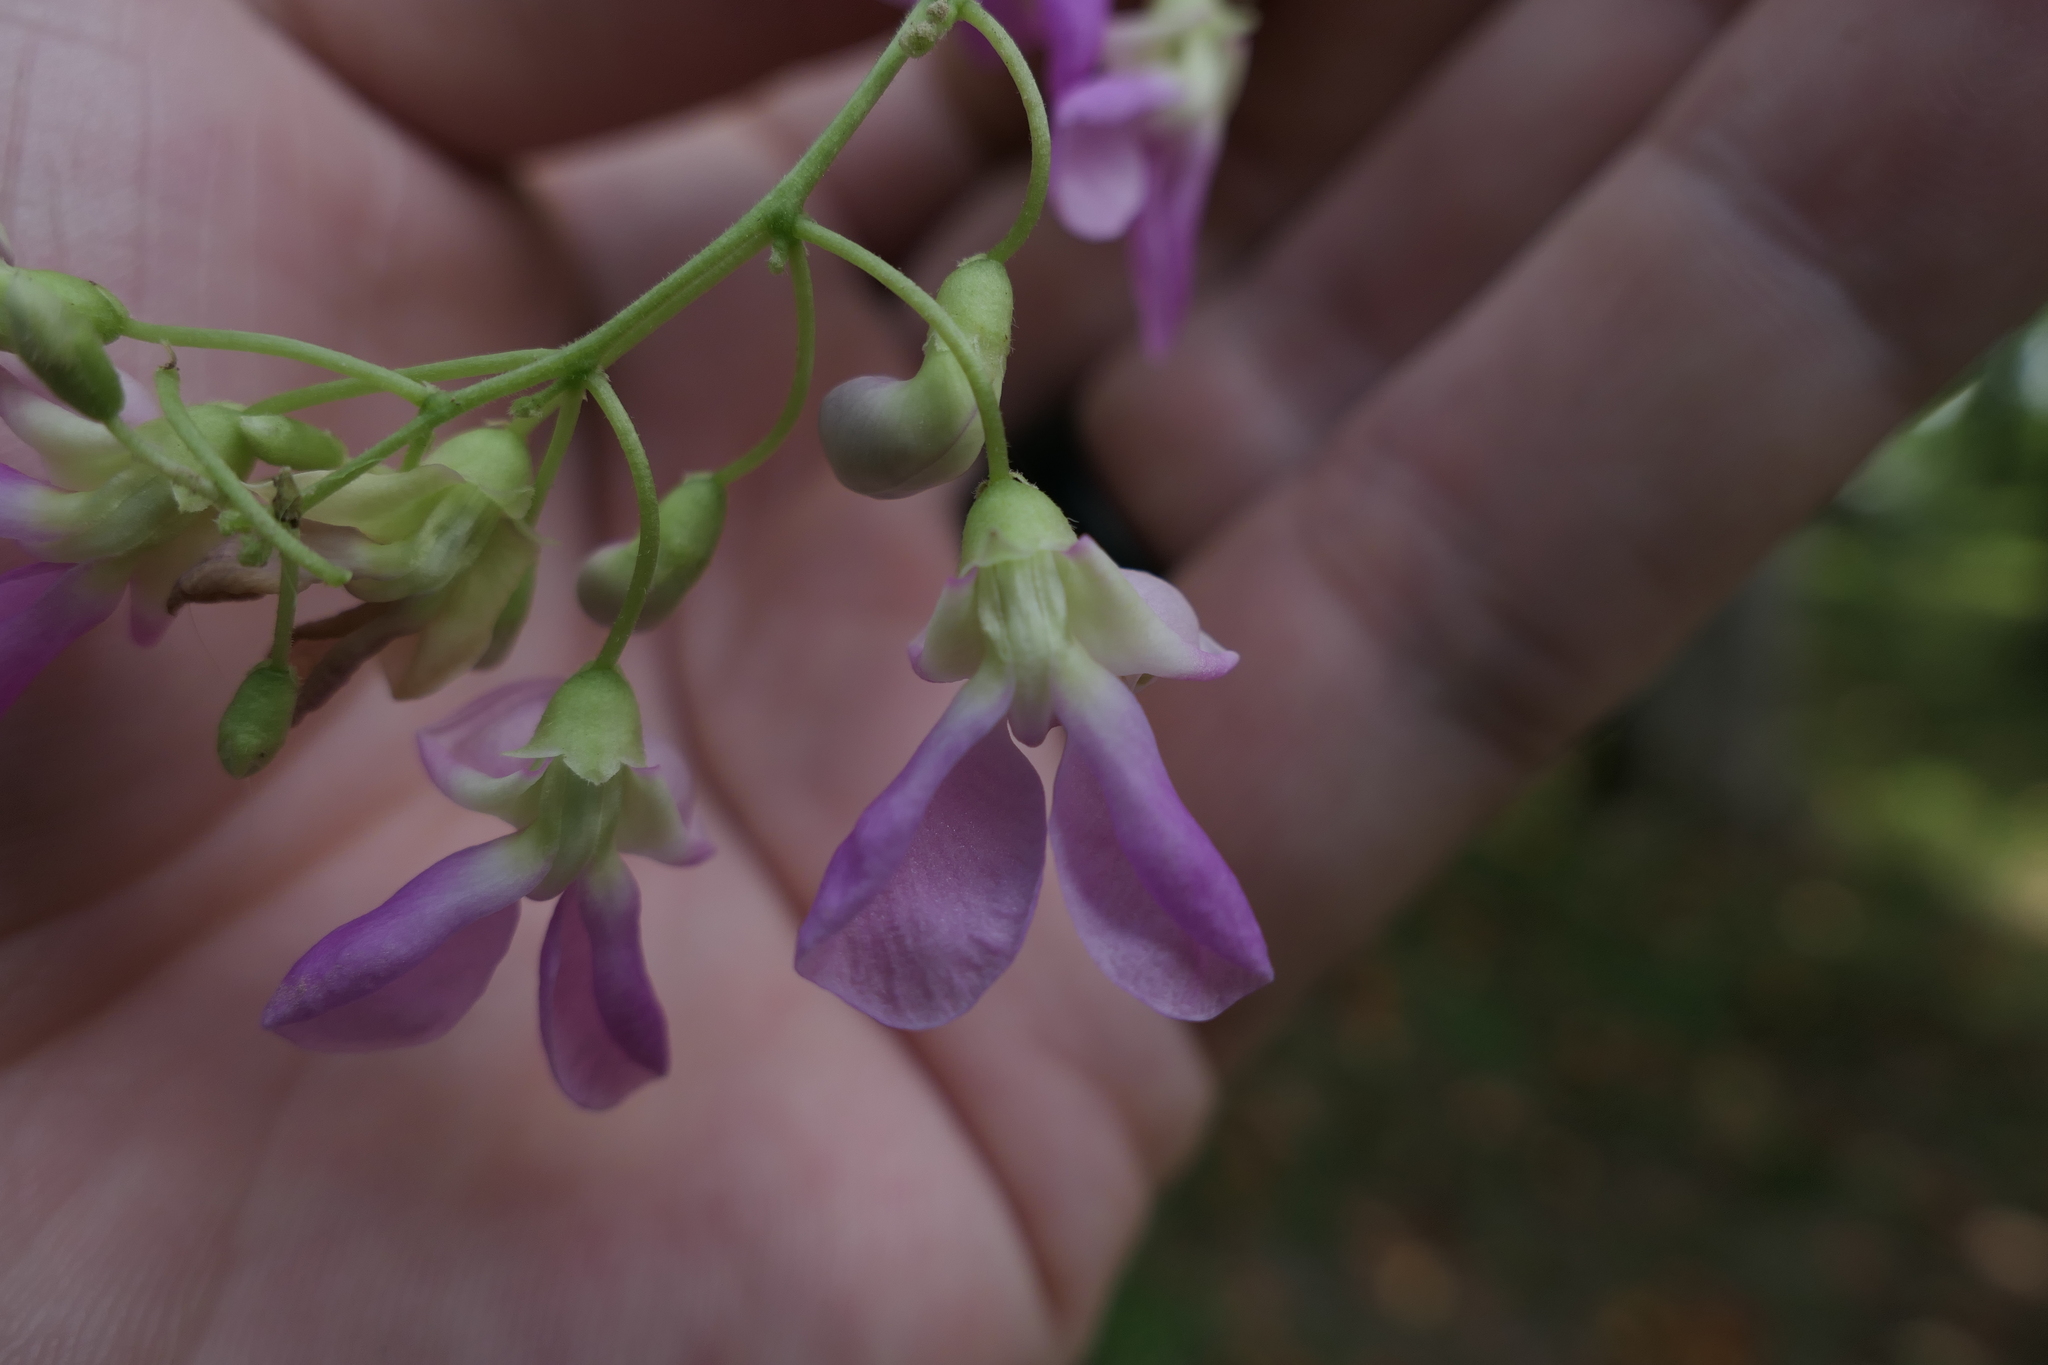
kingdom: Plantae
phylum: Tracheophyta
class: Magnoliopsida
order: Fabales
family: Fabaceae
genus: Phaseolus
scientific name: Phaseolus polystachios
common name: Thicket bean
